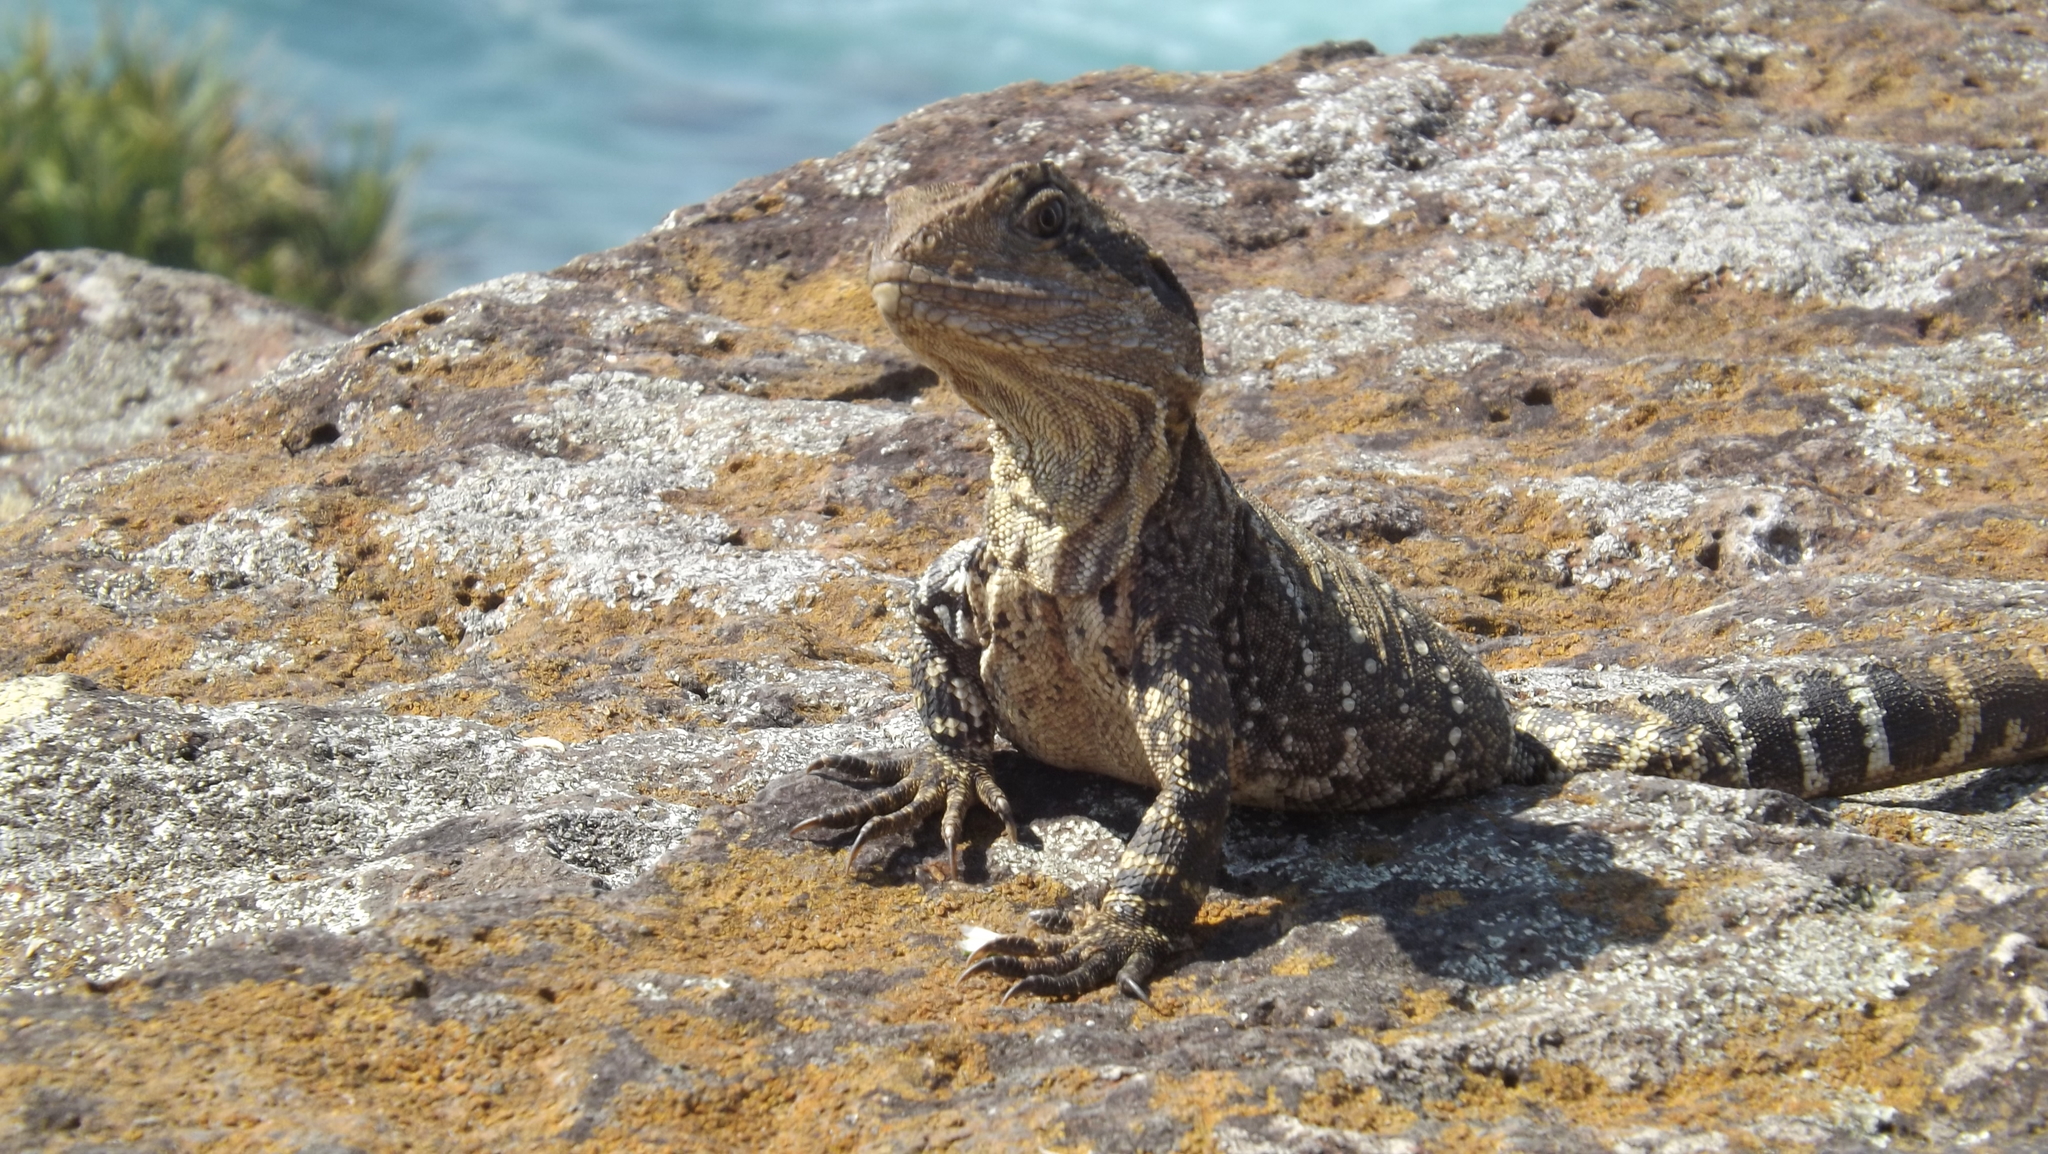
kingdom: Animalia
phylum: Chordata
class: Squamata
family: Agamidae
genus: Intellagama
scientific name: Intellagama lesueurii
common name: Eastern water dragon
